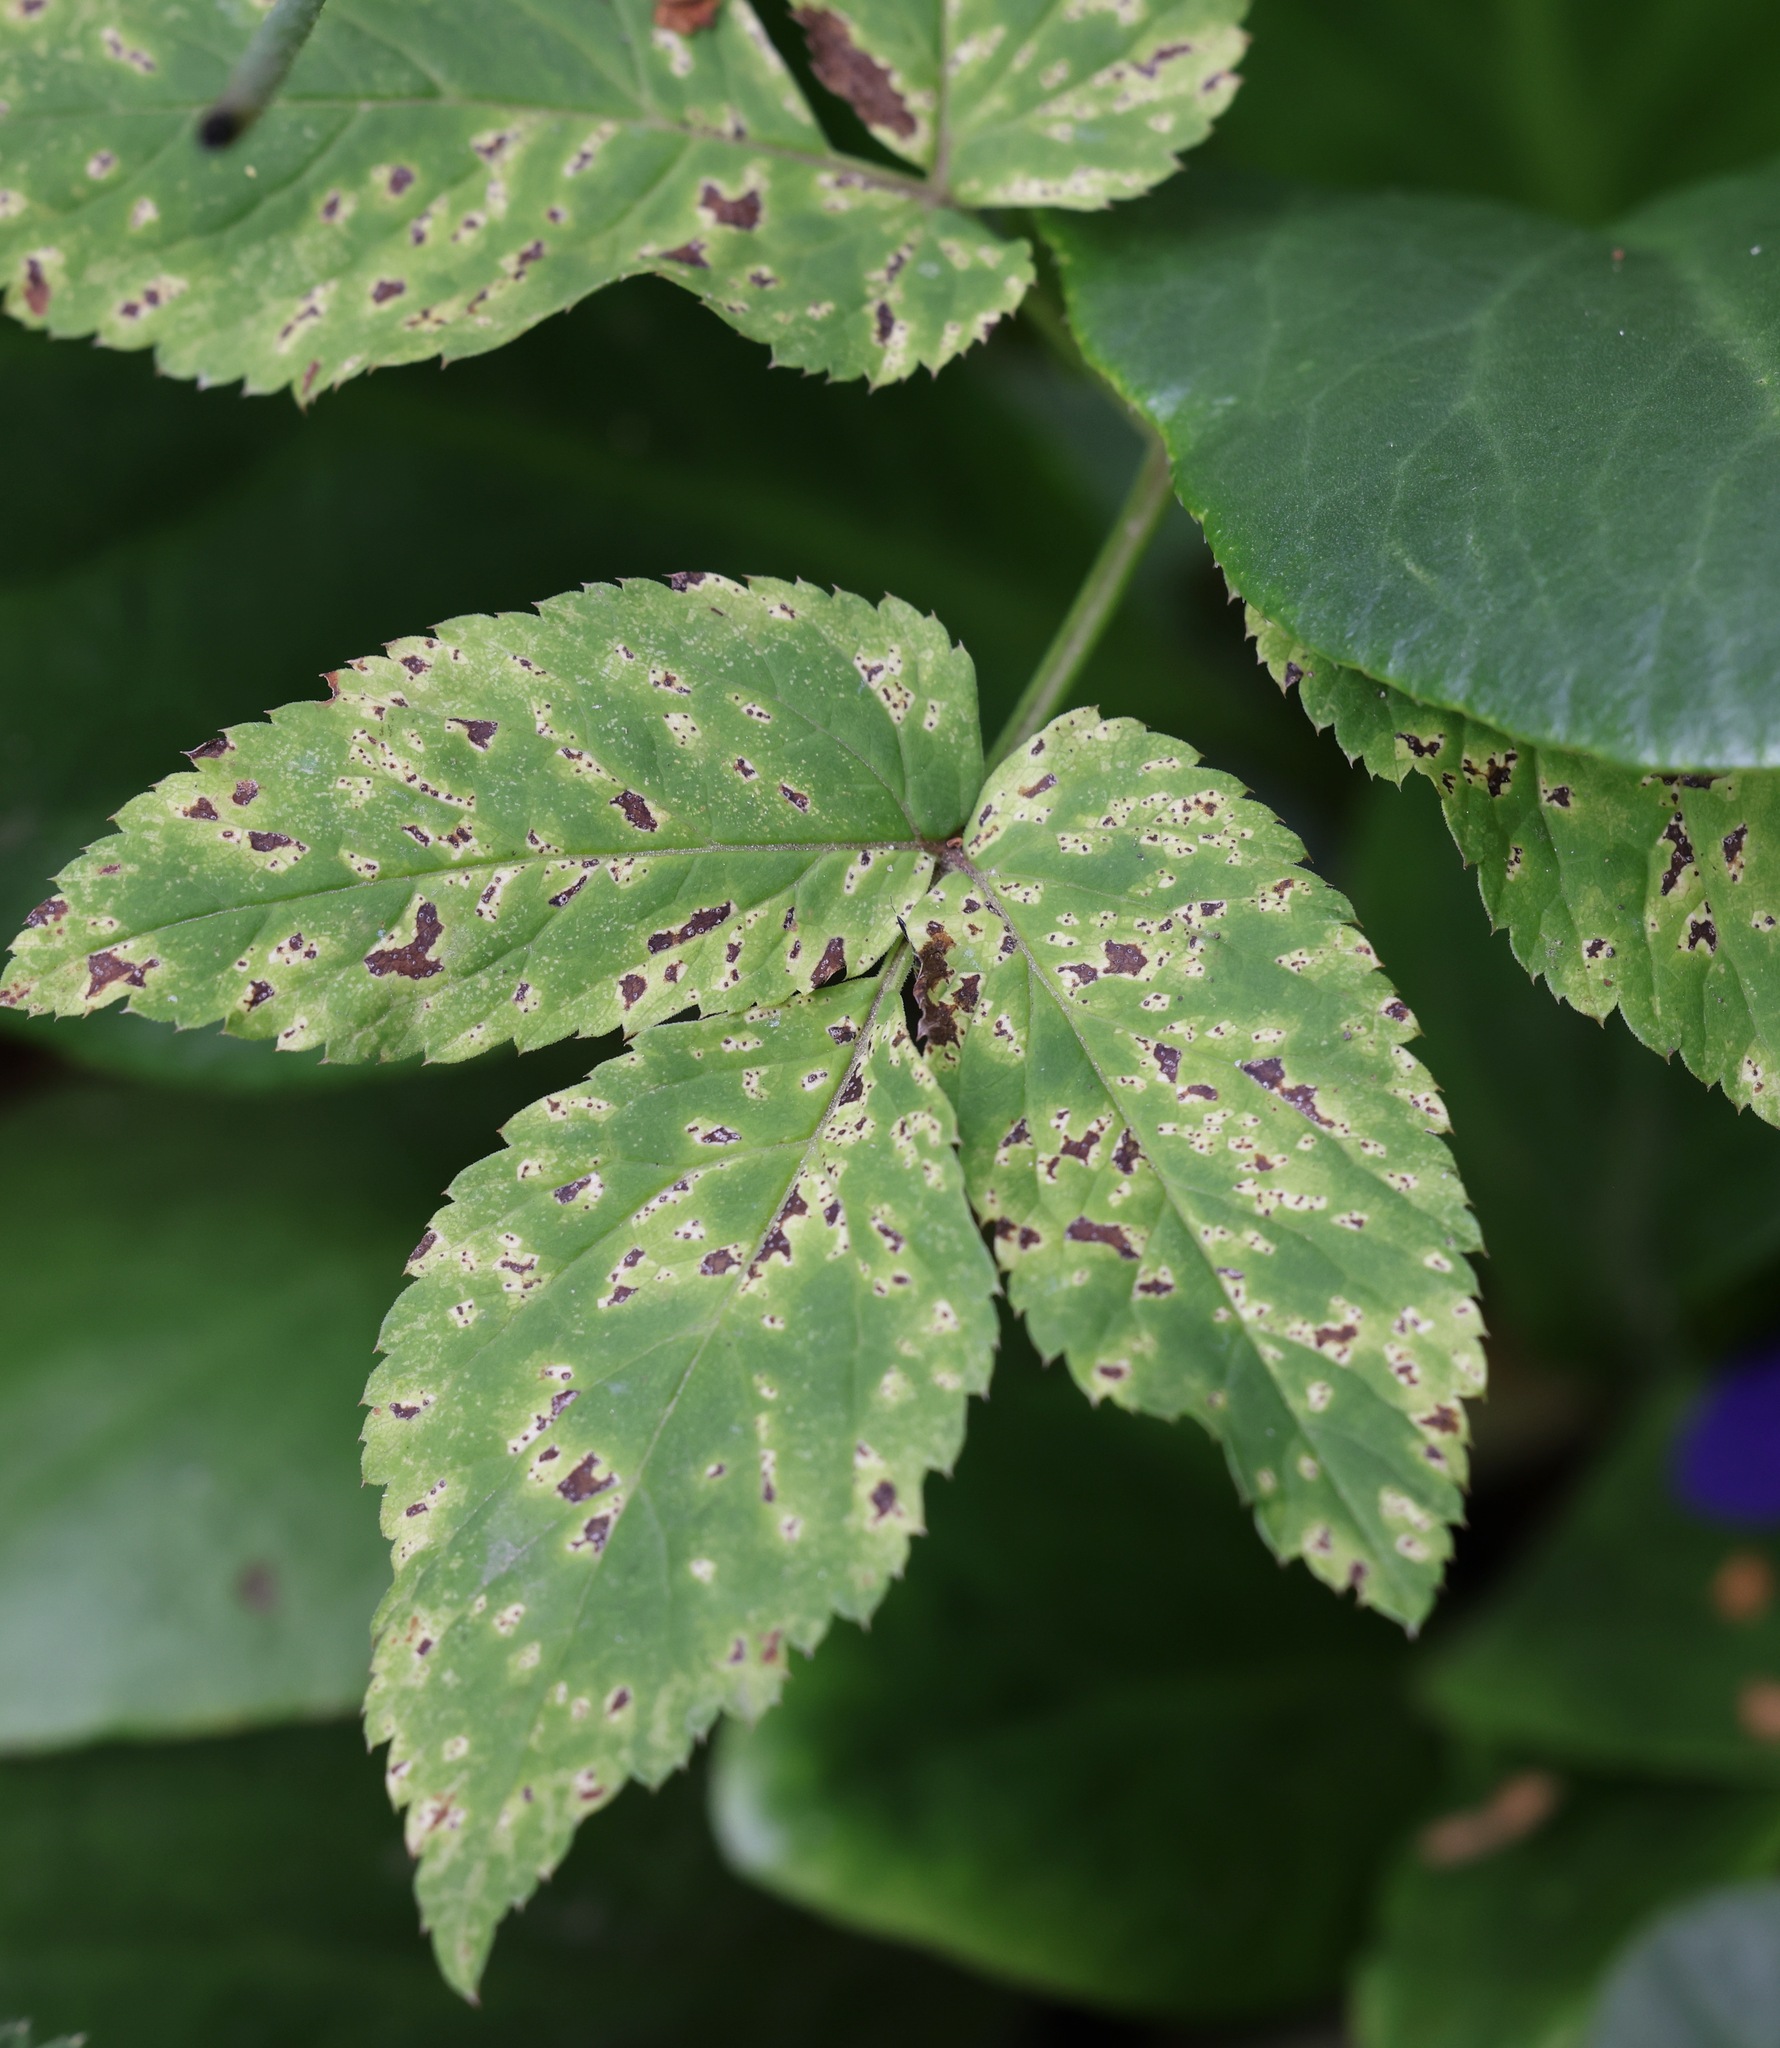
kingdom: Fungi
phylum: Ascomycota
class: Dothideomycetes
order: Mycosphaerellales
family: Mycosphaerellaceae
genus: Mycosphaerella
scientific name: Mycosphaerella podagrariae
